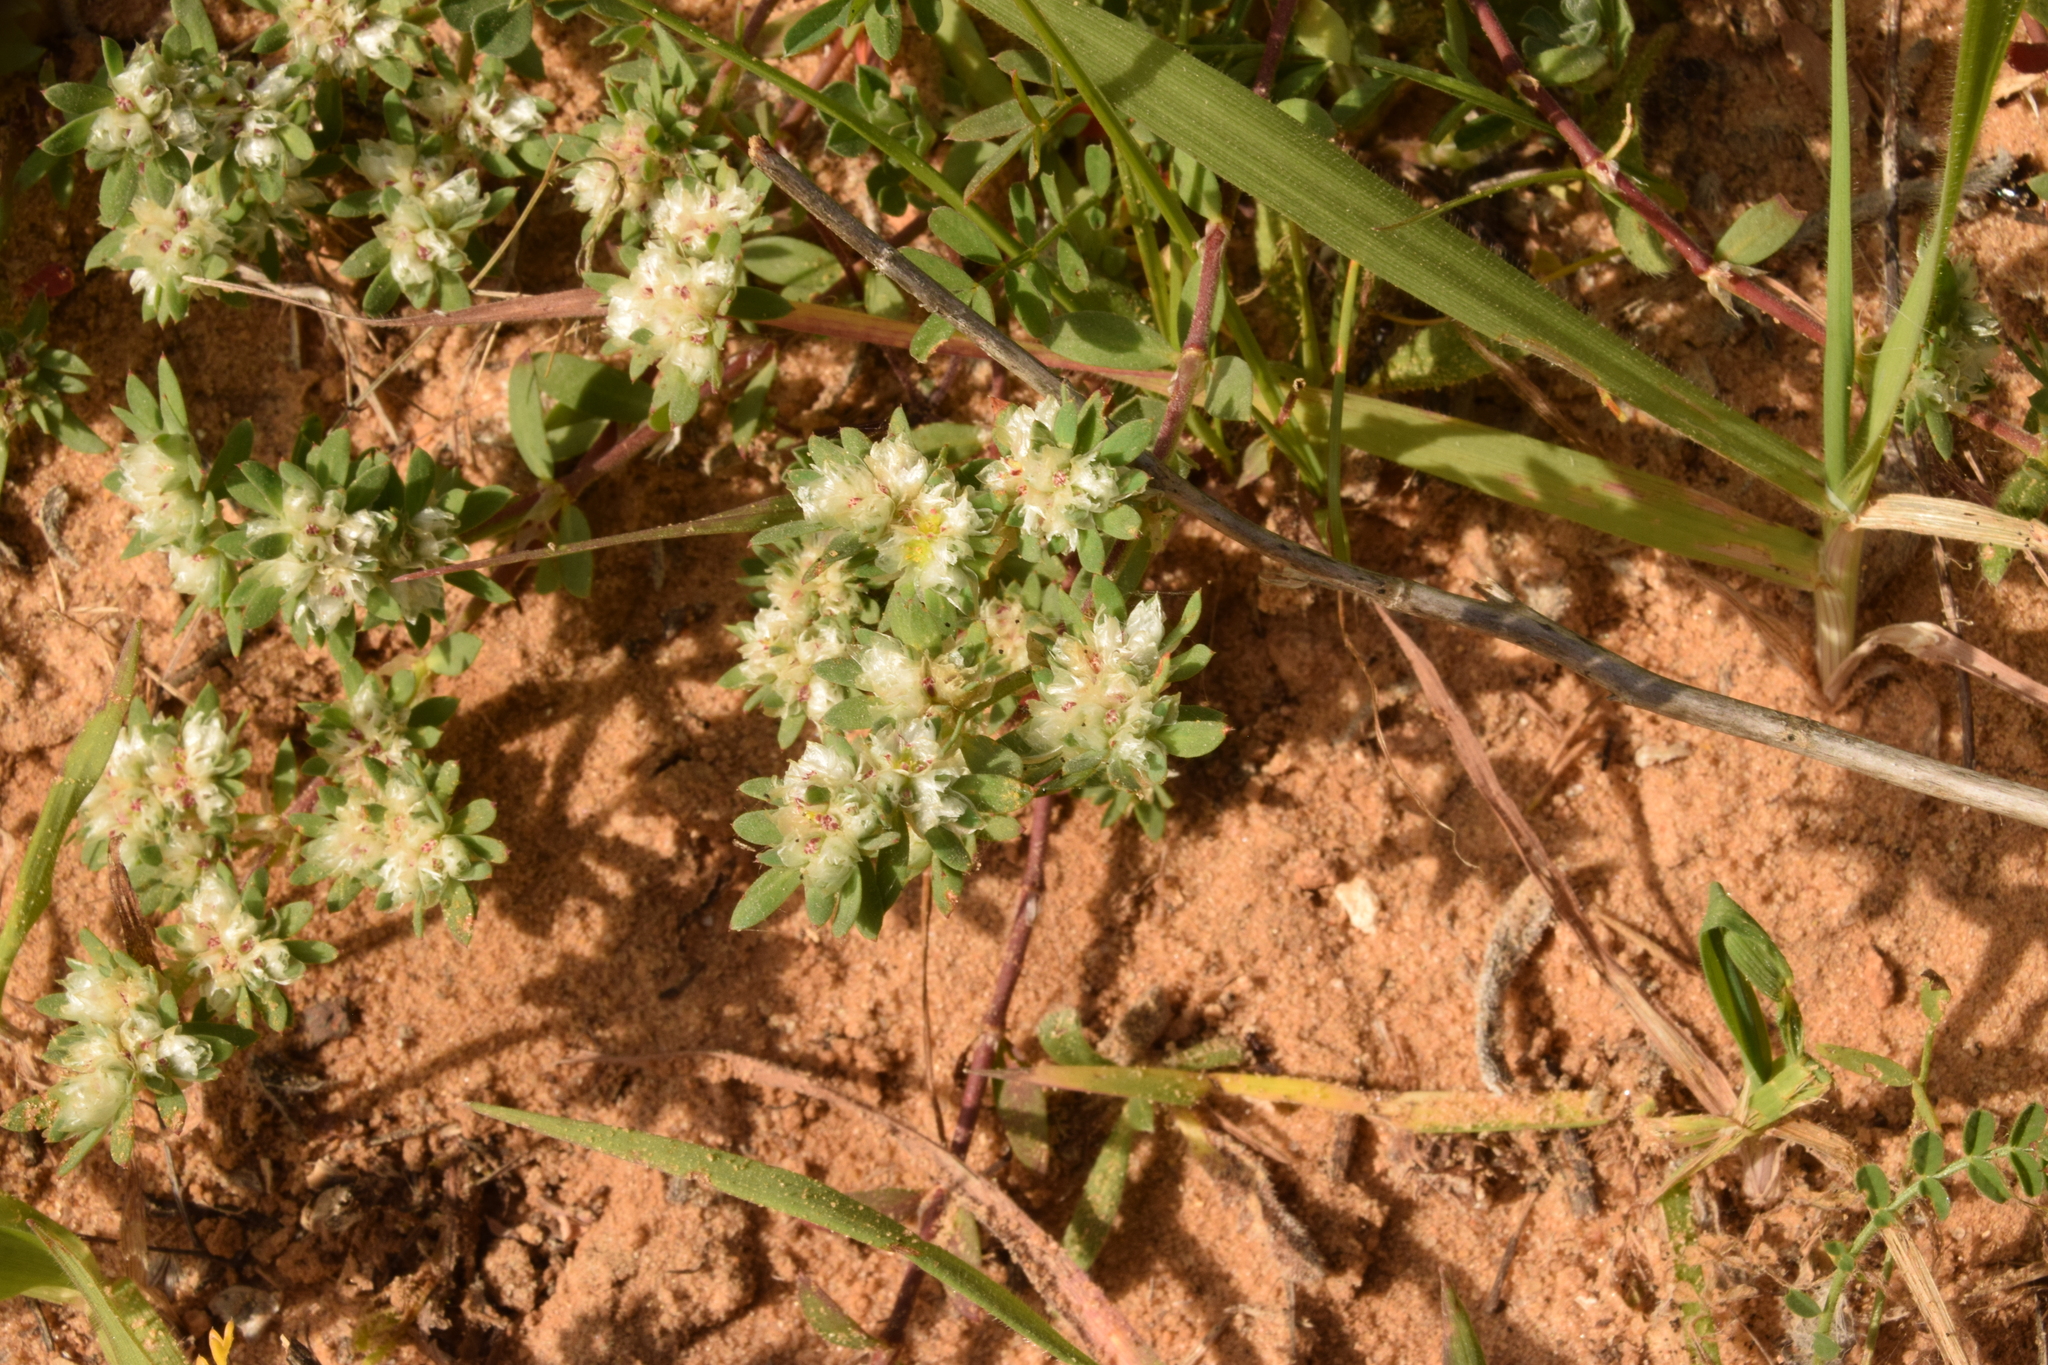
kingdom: Plantae
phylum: Tracheophyta
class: Magnoliopsida
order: Caryophyllales
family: Caryophyllaceae
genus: Paronychia
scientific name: Paronychia argentea
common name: Silver nailroot
